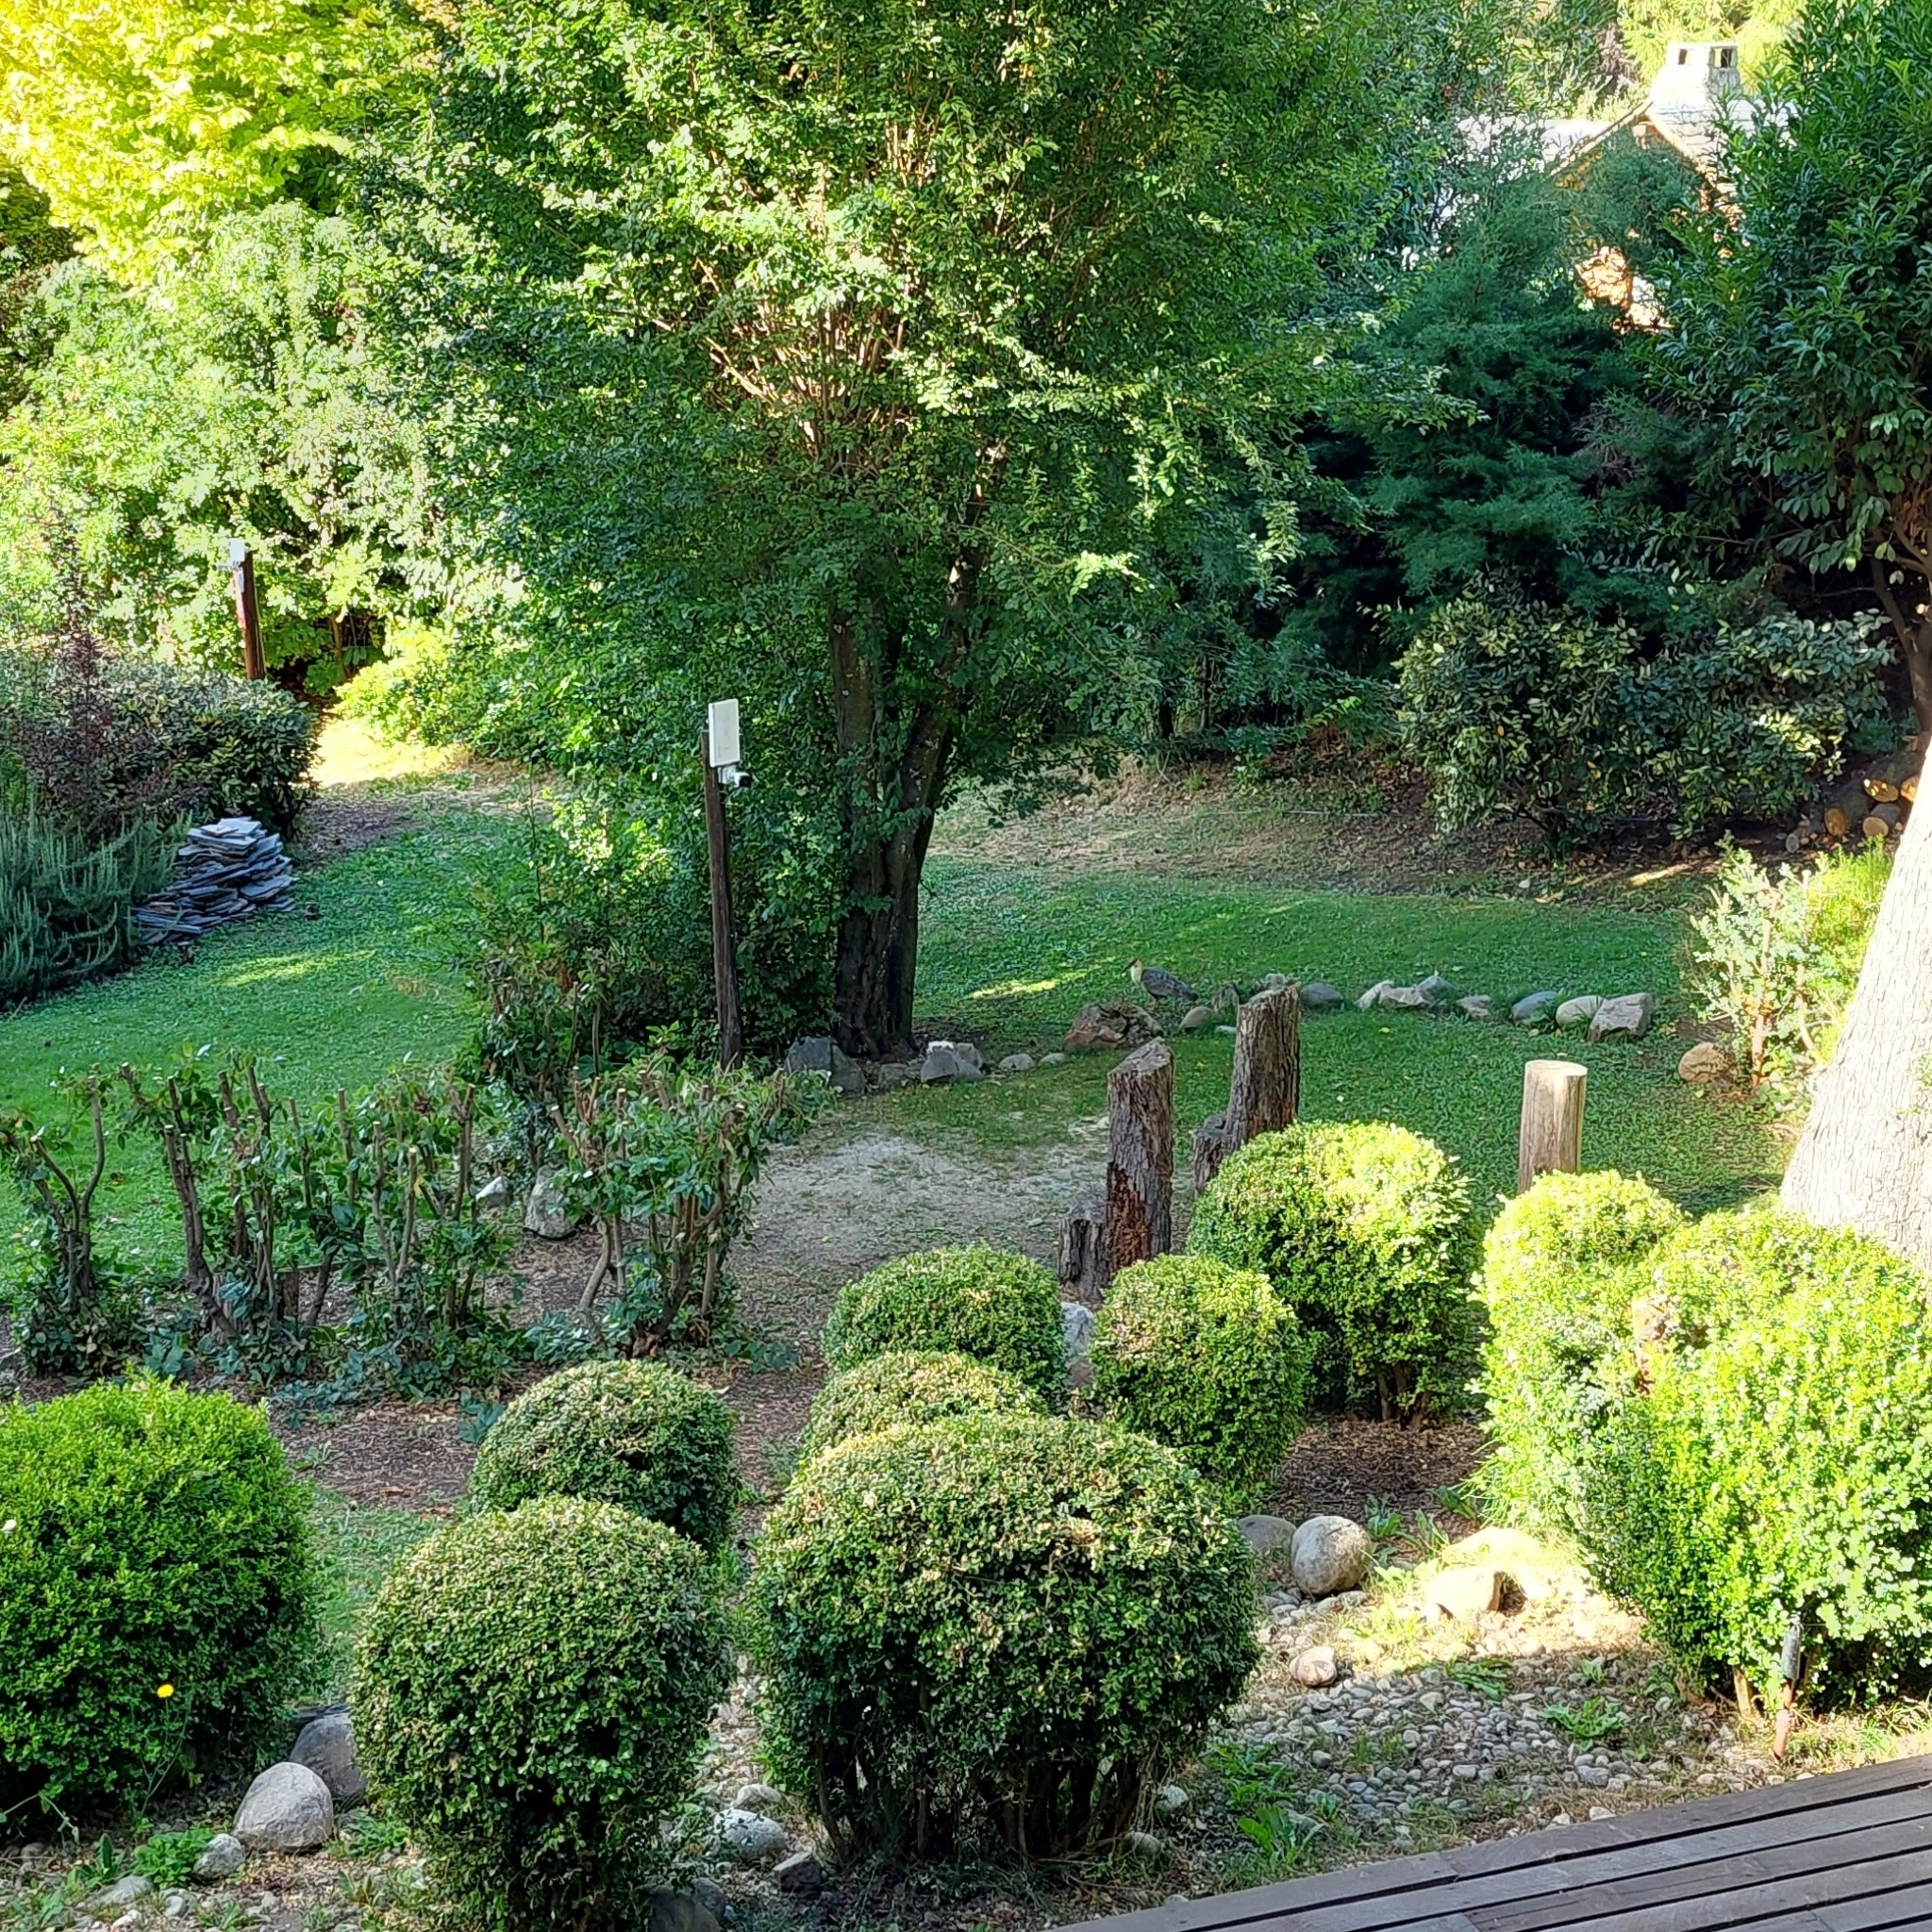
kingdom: Animalia
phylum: Chordata
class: Aves
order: Pelecaniformes
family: Threskiornithidae
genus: Theristicus
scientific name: Theristicus melanopis
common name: Black-faced ibis
